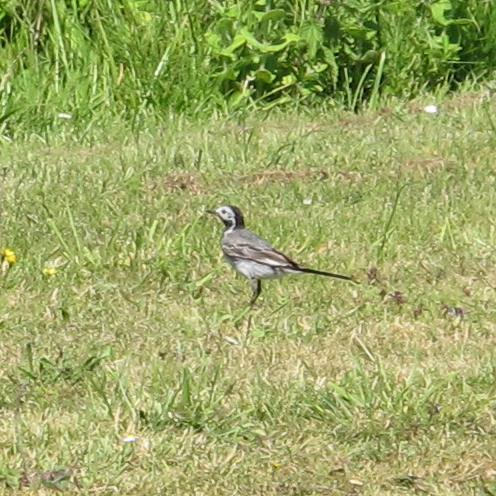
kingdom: Animalia
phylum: Chordata
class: Aves
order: Passeriformes
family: Motacillidae
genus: Motacilla
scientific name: Motacilla alba
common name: White wagtail
